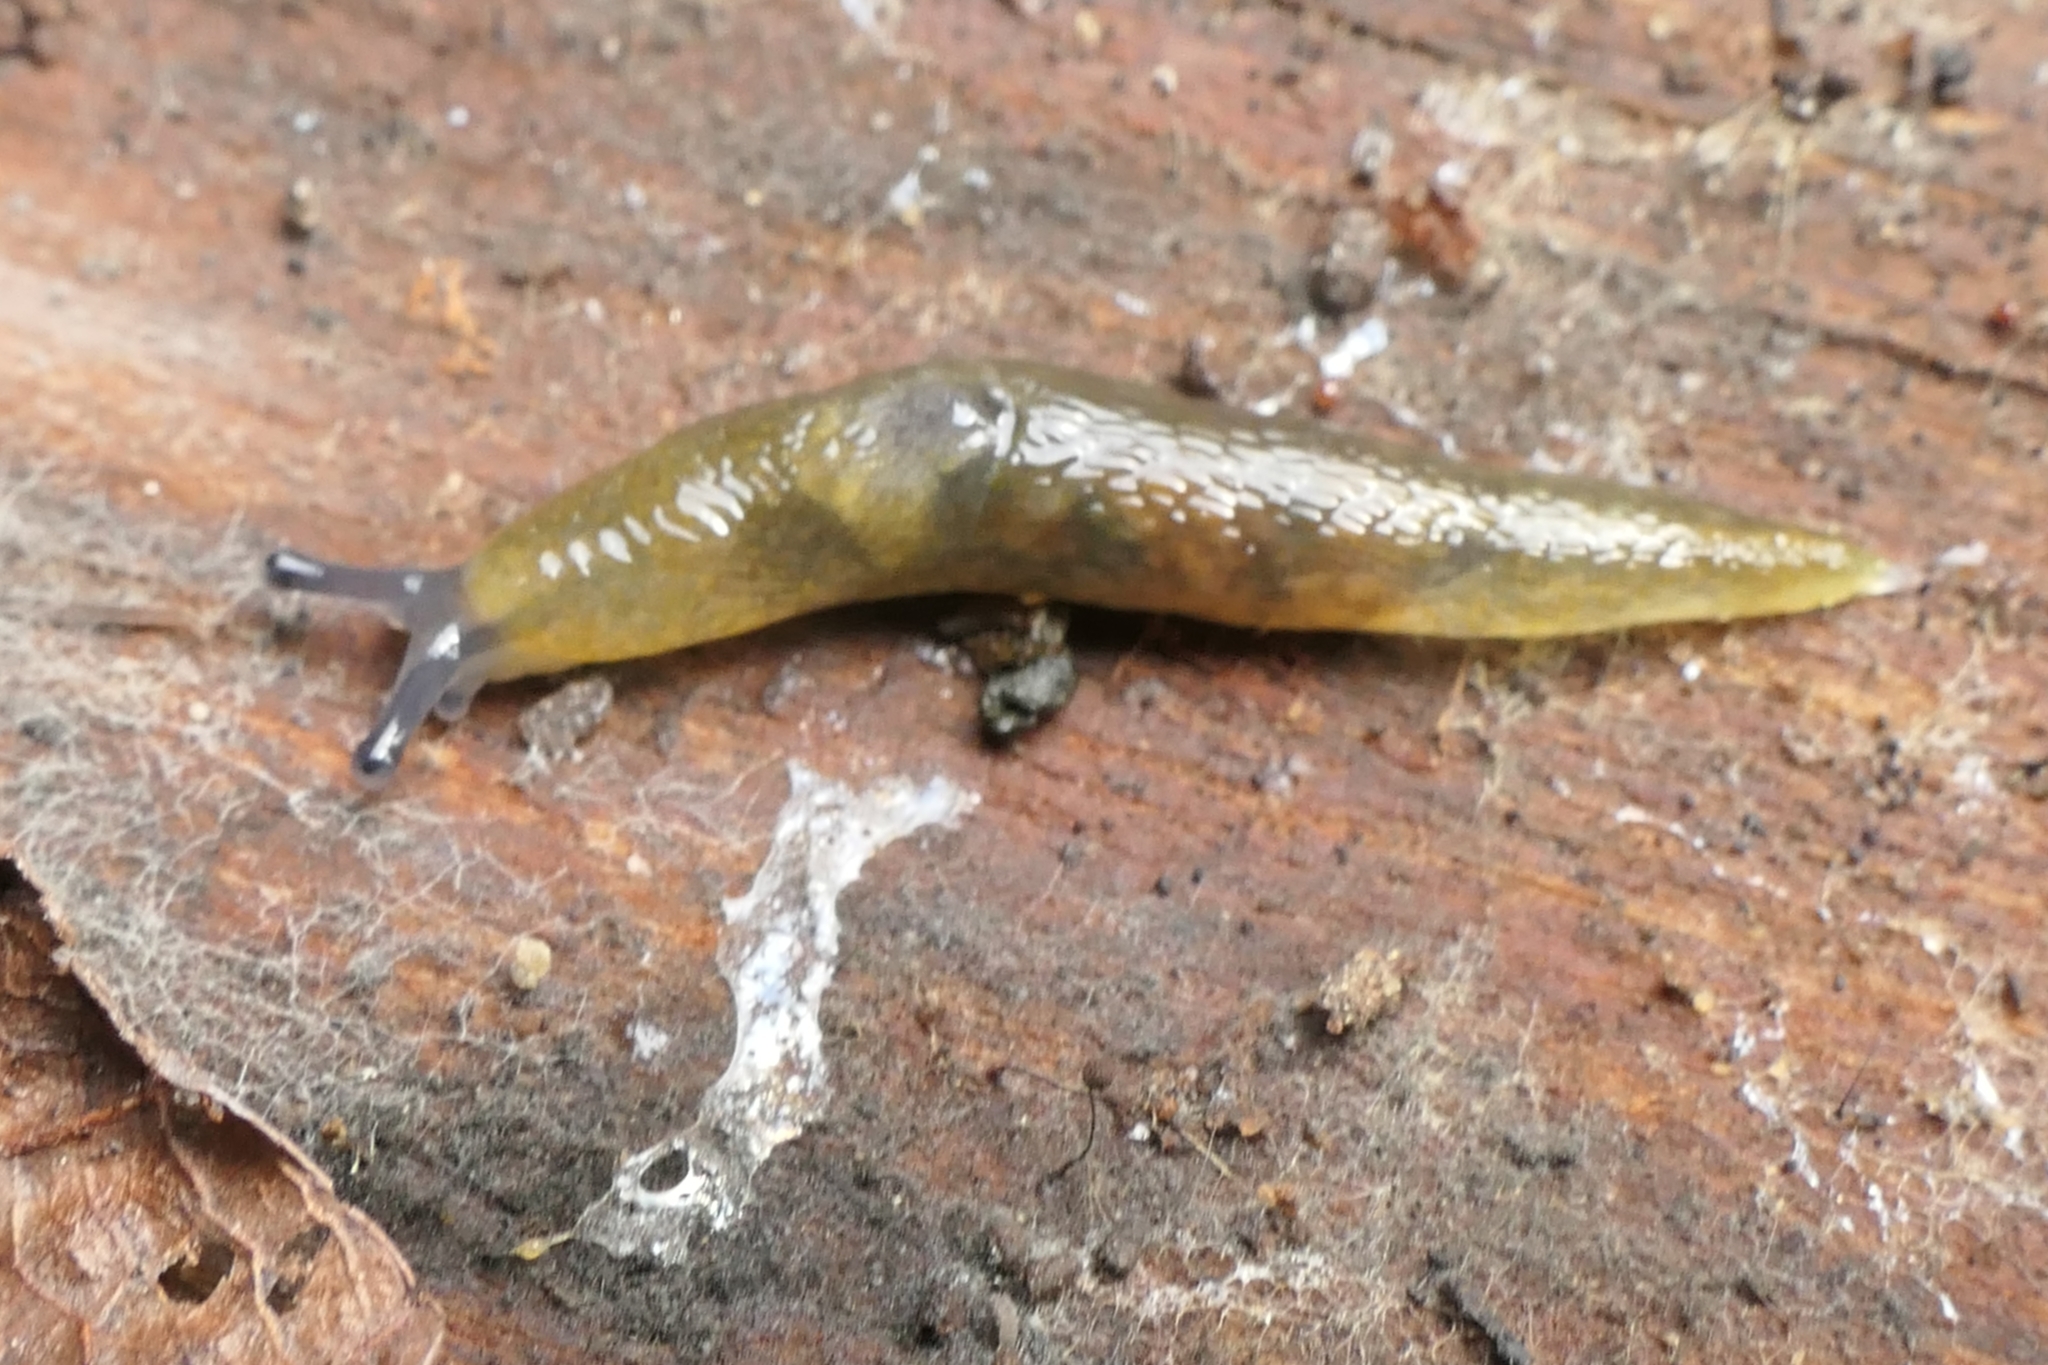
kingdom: Animalia
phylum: Mollusca
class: Gastropoda
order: Stylommatophora
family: Limacidae
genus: Limacus
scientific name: Limacus flavus
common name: Yellow gardenslug
